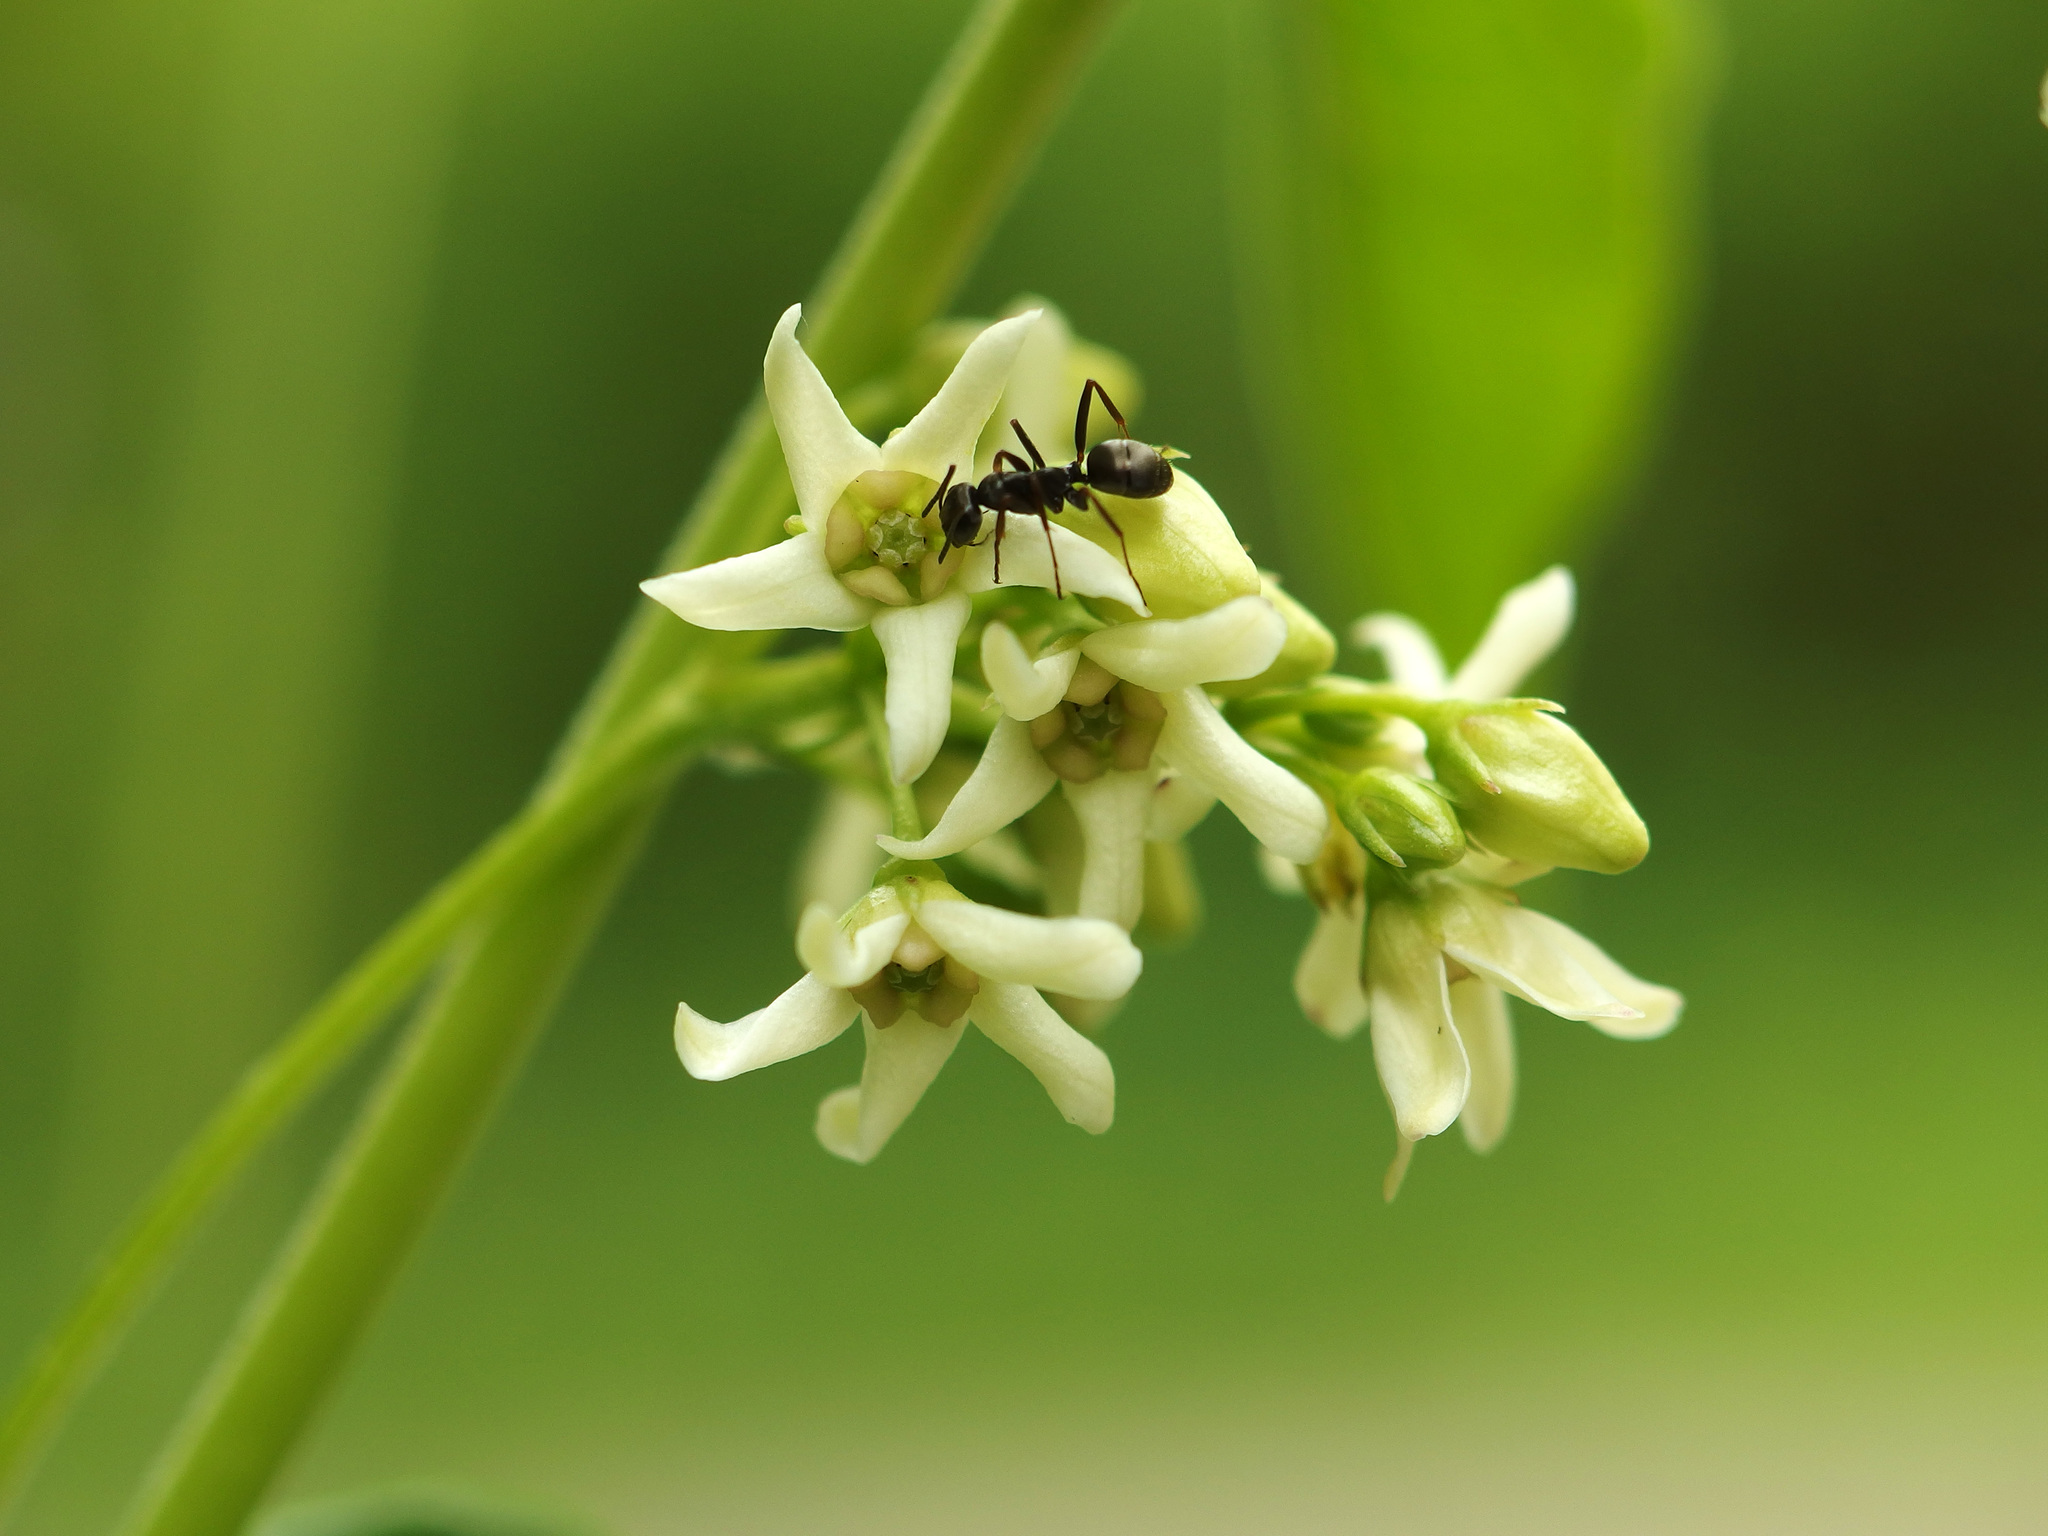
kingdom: Plantae
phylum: Tracheophyta
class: Magnoliopsida
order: Gentianales
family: Apocynaceae
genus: Vincetoxicum
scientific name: Vincetoxicum hirundinaria
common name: White swallowwort
